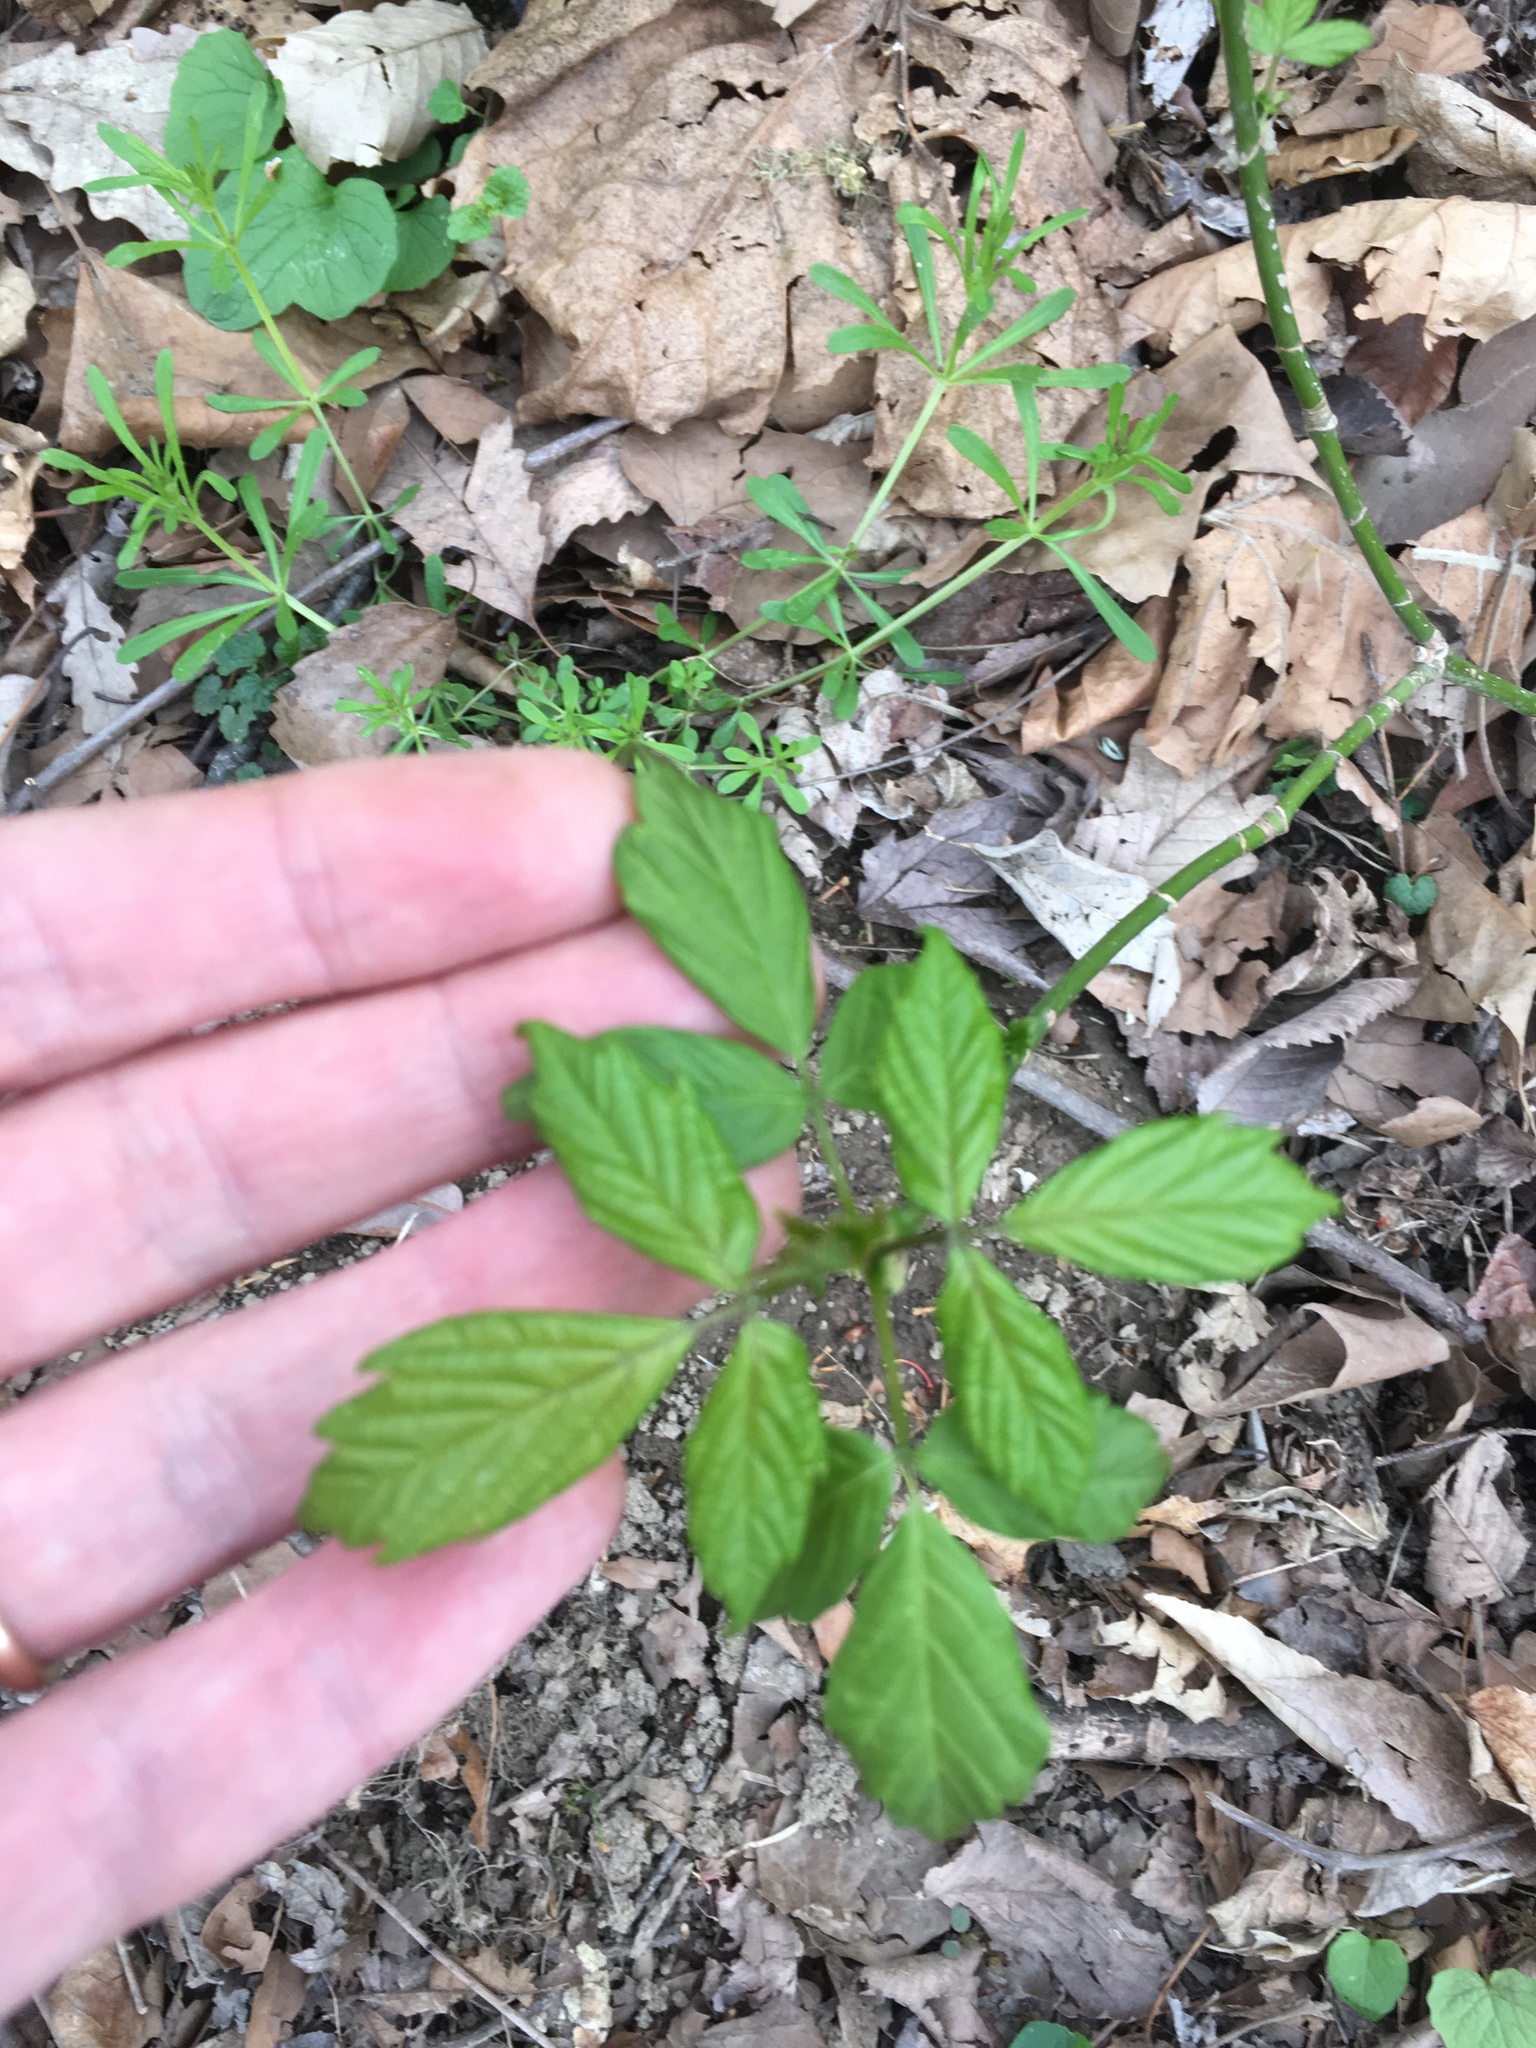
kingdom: Plantae
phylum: Tracheophyta
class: Magnoliopsida
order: Sapindales
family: Sapindaceae
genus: Acer
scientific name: Acer negundo
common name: Ashleaf maple
